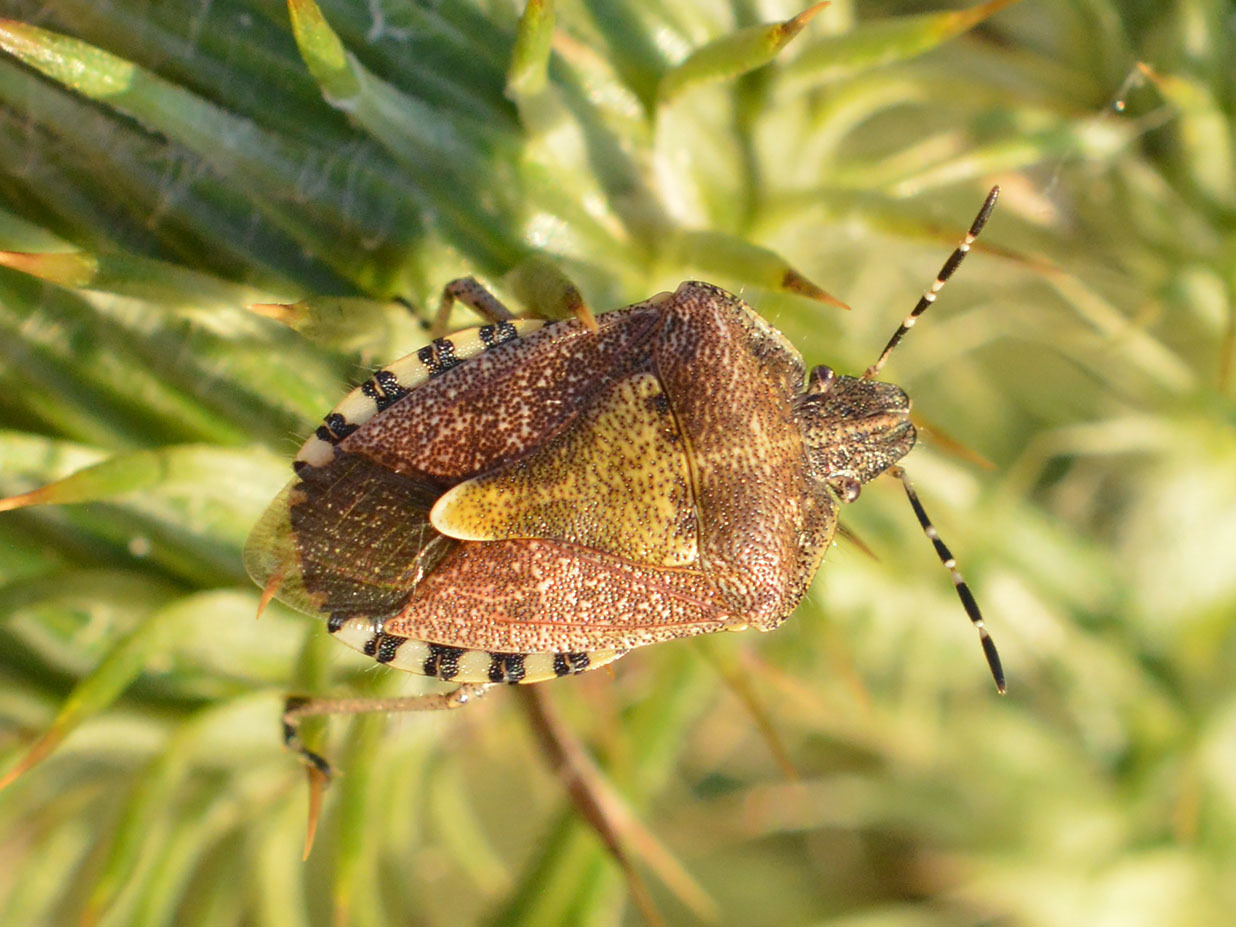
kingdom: Animalia
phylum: Arthropoda
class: Insecta
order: Hemiptera
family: Pentatomidae
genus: Dolycoris
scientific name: Dolycoris baccarum
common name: Sloe bug
